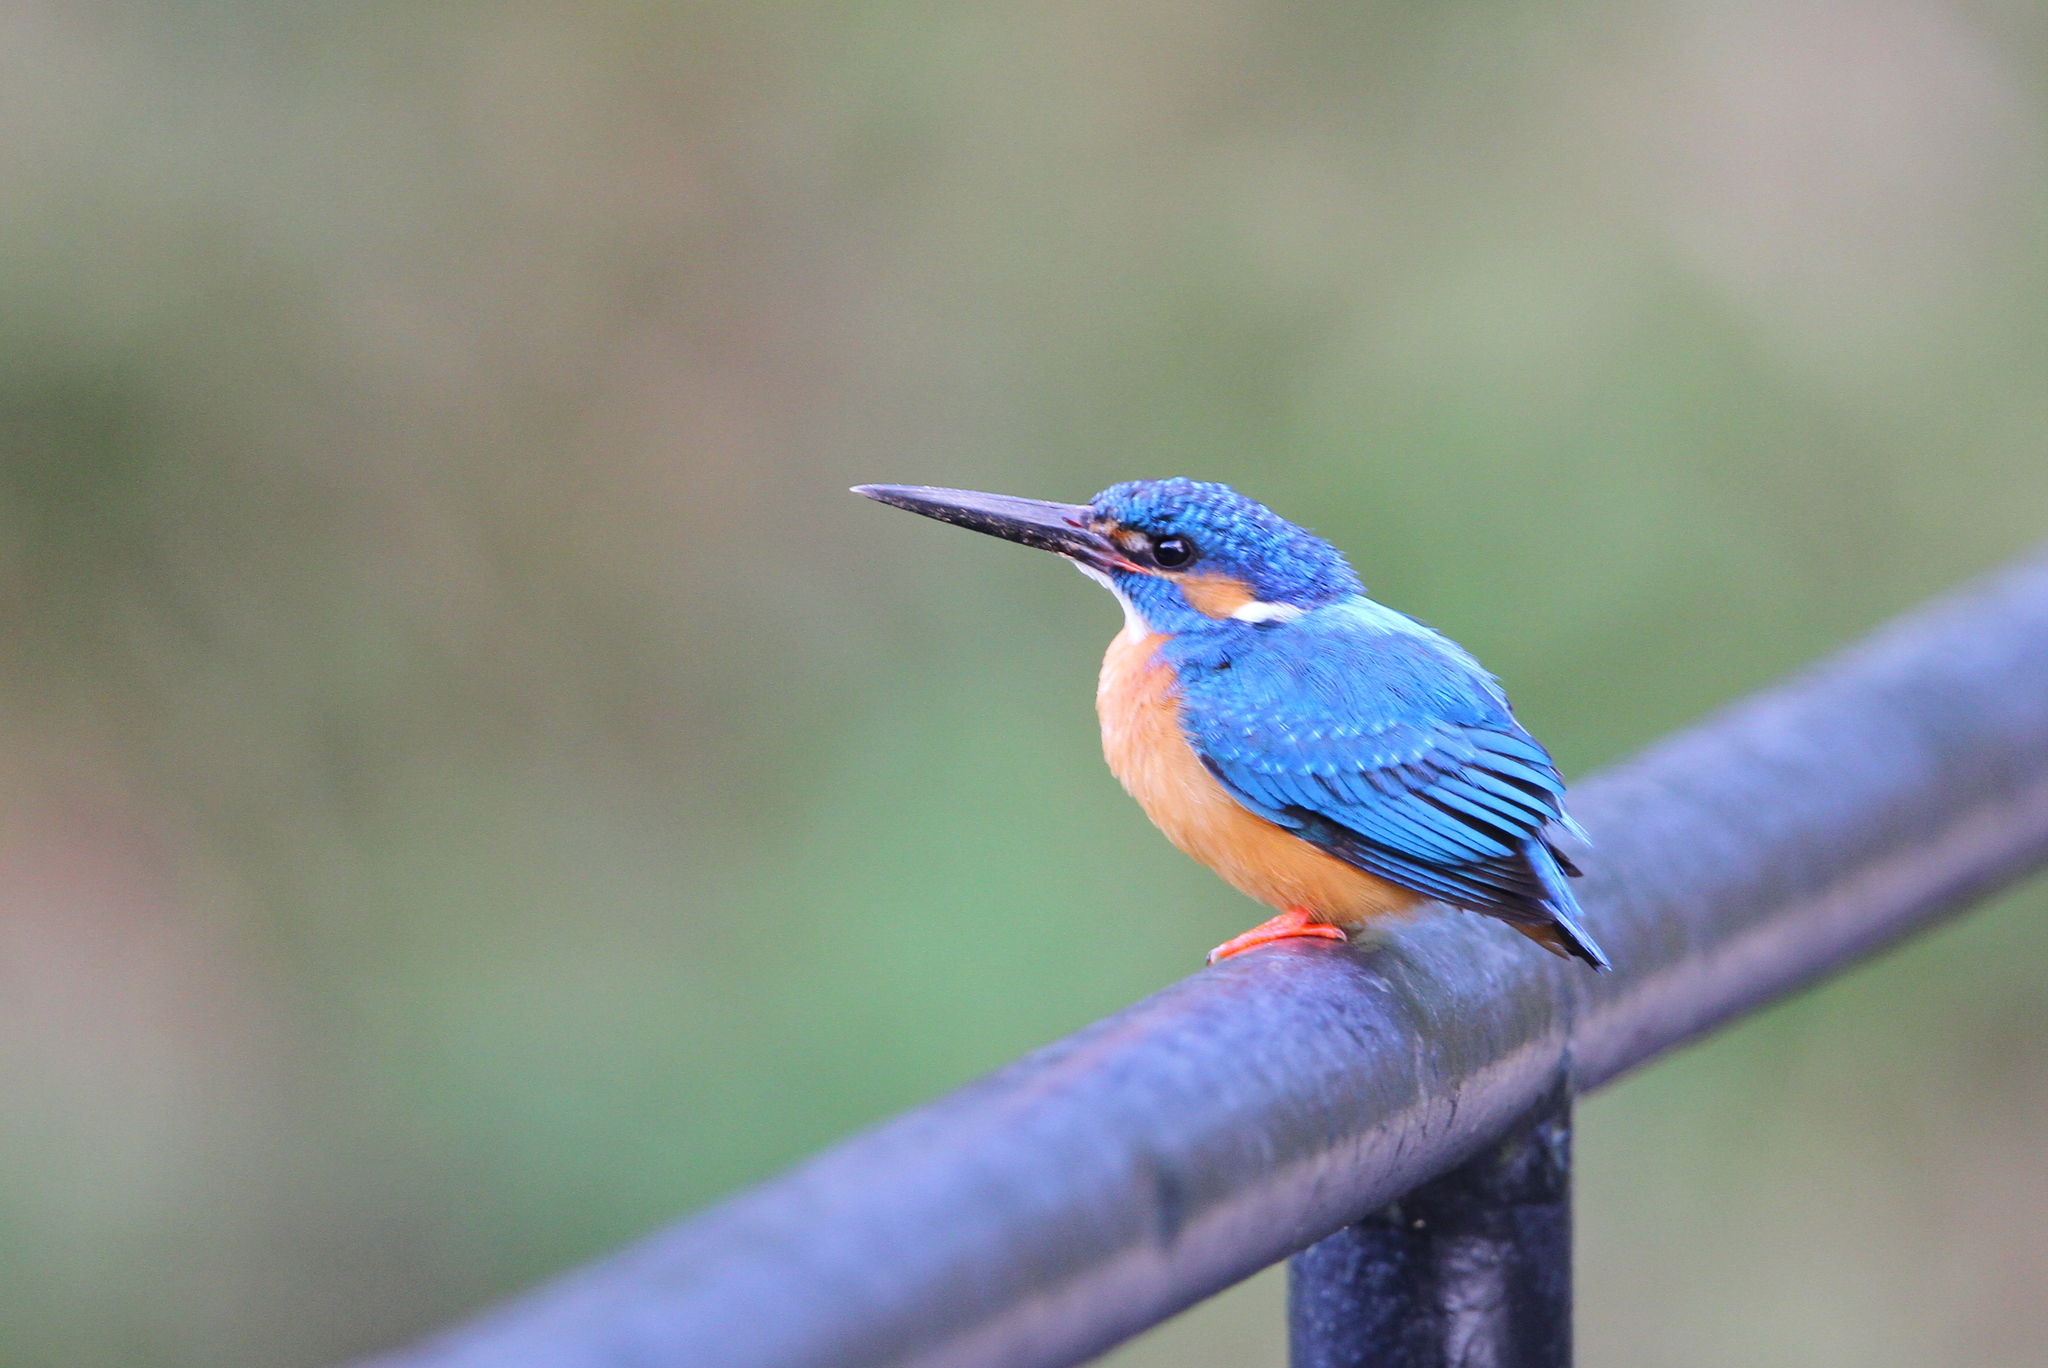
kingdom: Animalia
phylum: Chordata
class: Aves
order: Coraciiformes
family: Alcedinidae
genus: Alcedo
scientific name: Alcedo atthis
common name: Common kingfisher
